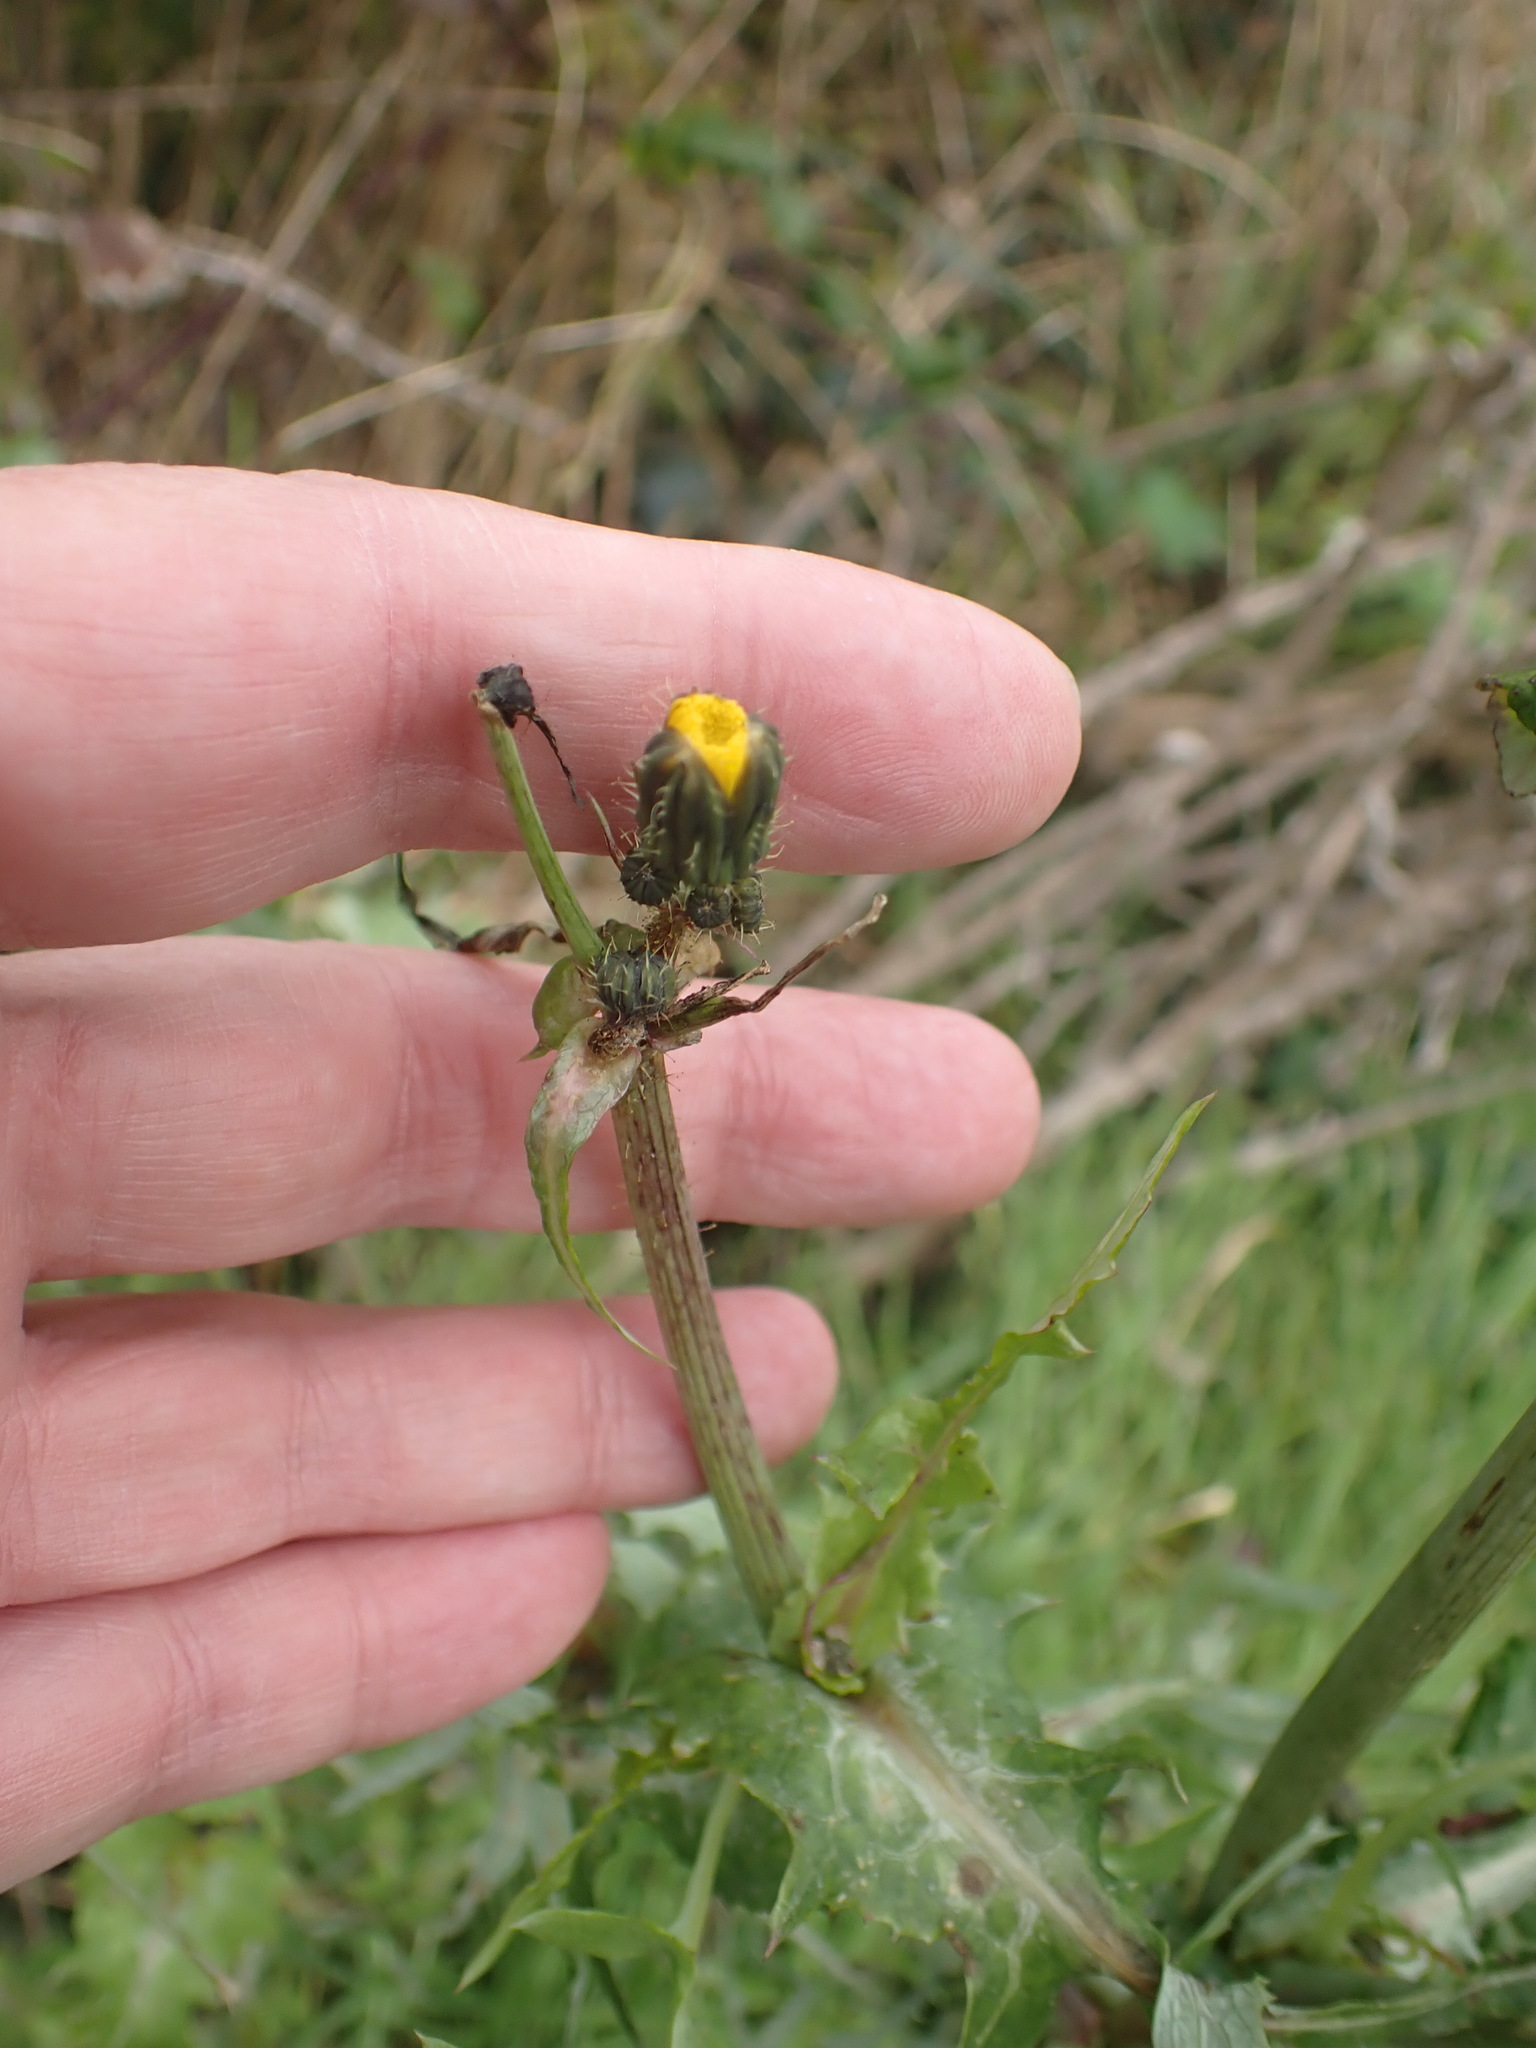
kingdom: Plantae
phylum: Tracheophyta
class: Magnoliopsida
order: Asterales
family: Asteraceae
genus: Sonchus
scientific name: Sonchus oleraceus
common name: Common sowthistle
